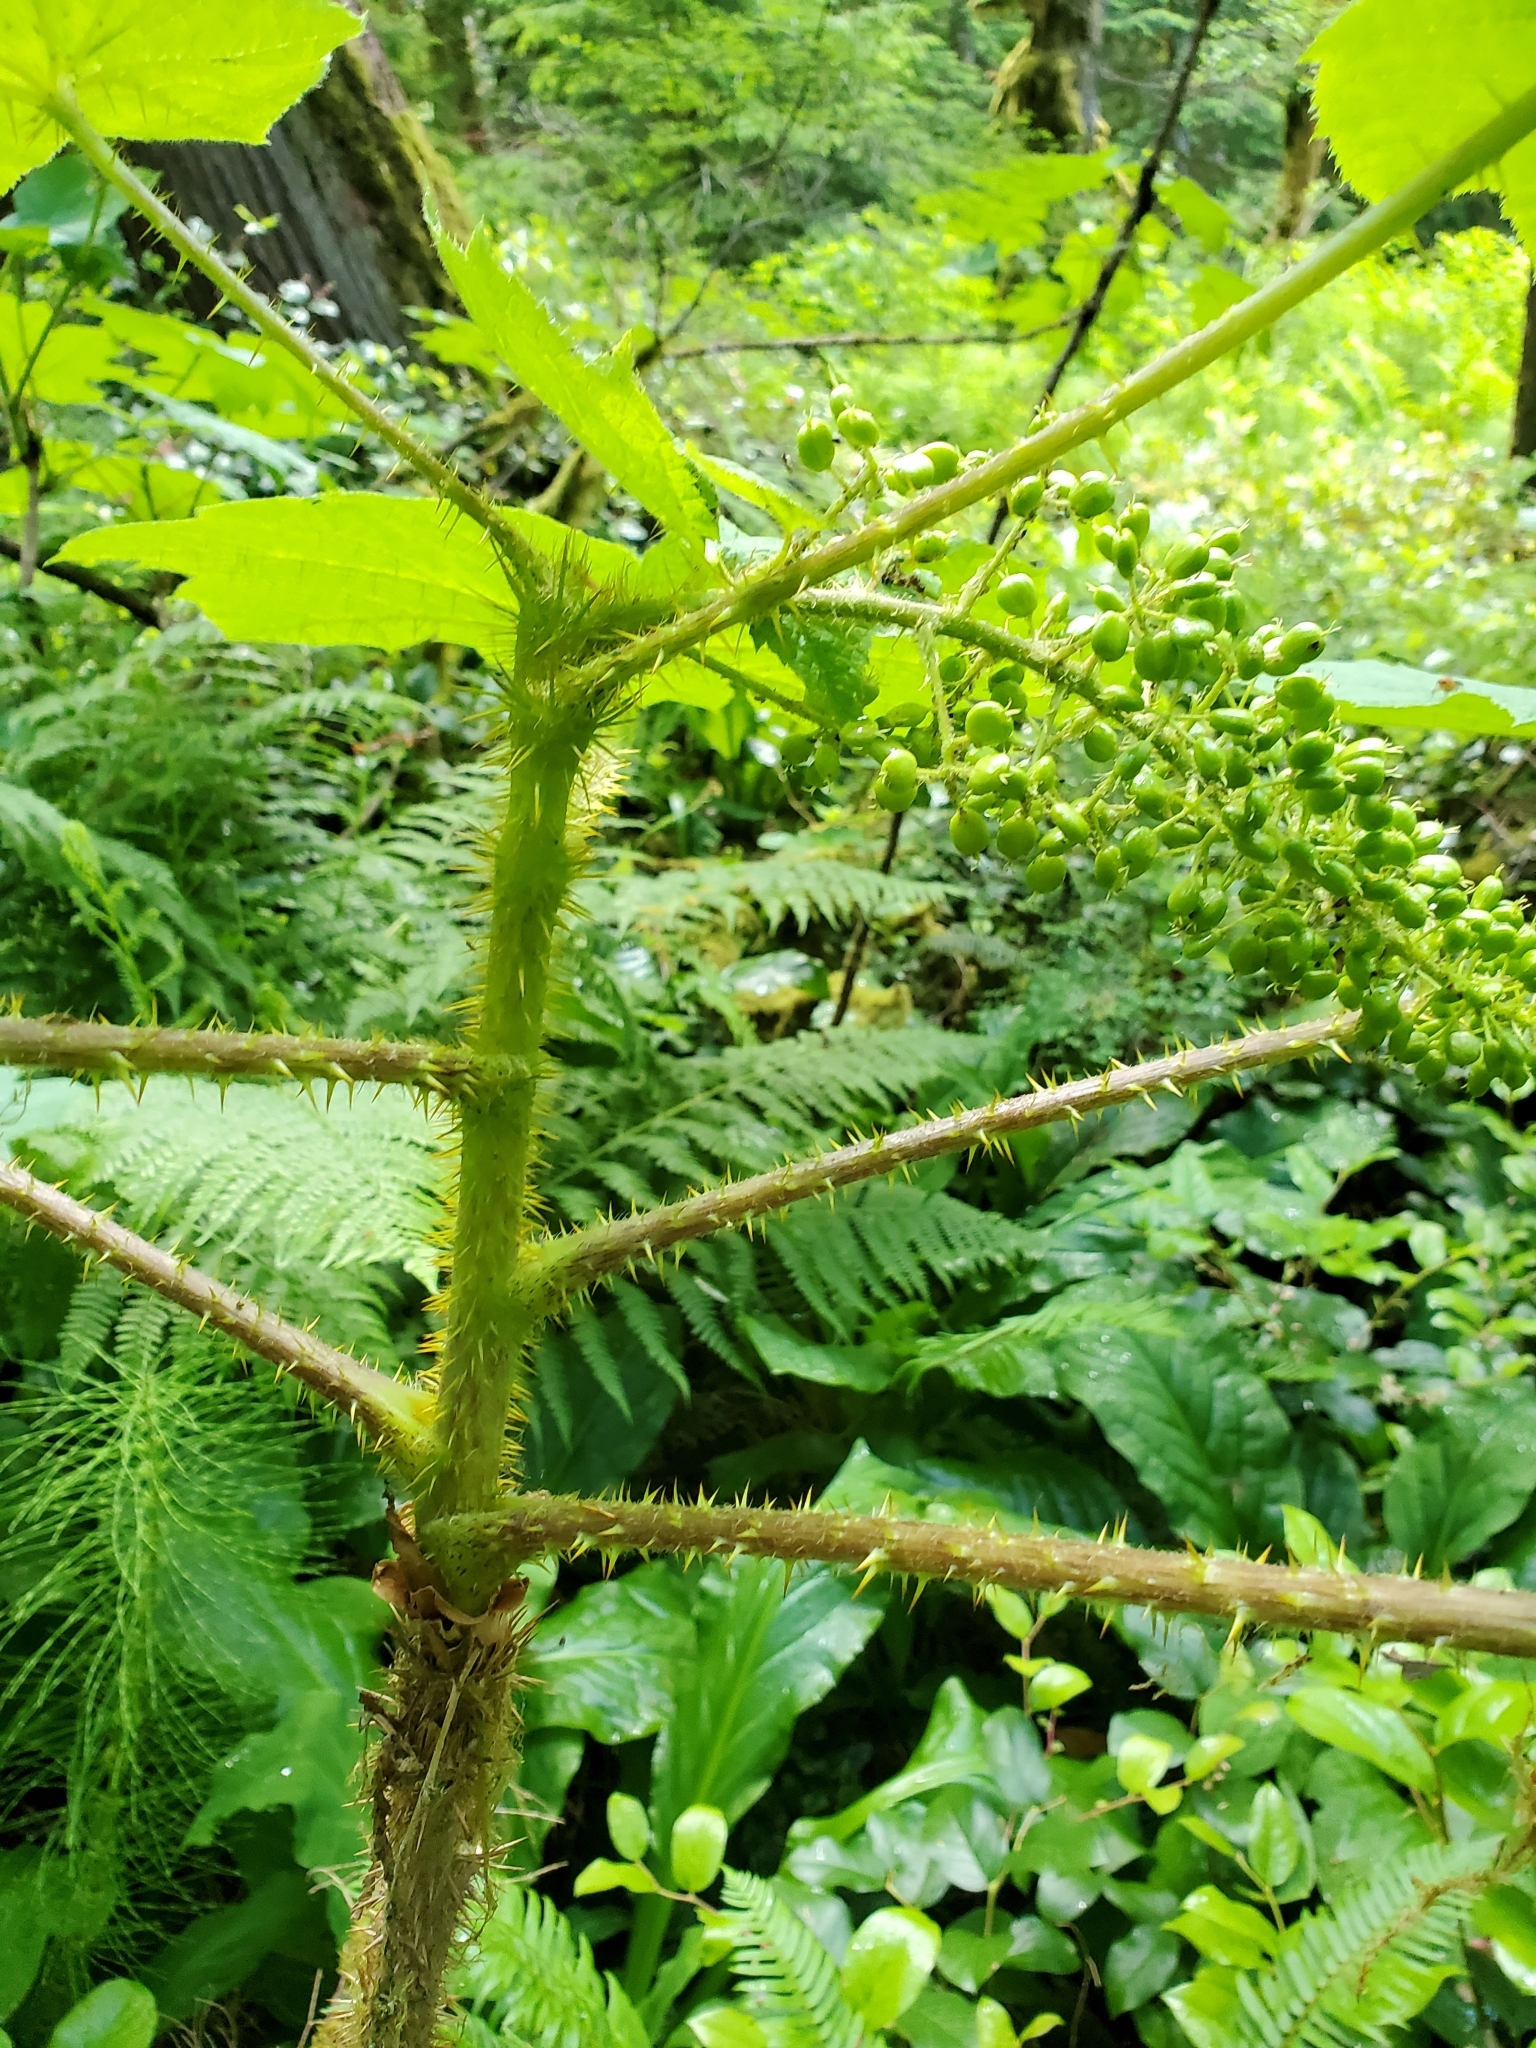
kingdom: Plantae
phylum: Tracheophyta
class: Magnoliopsida
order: Apiales
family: Araliaceae
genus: Oplopanax
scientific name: Oplopanax horridus
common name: Devil's walking-stick
